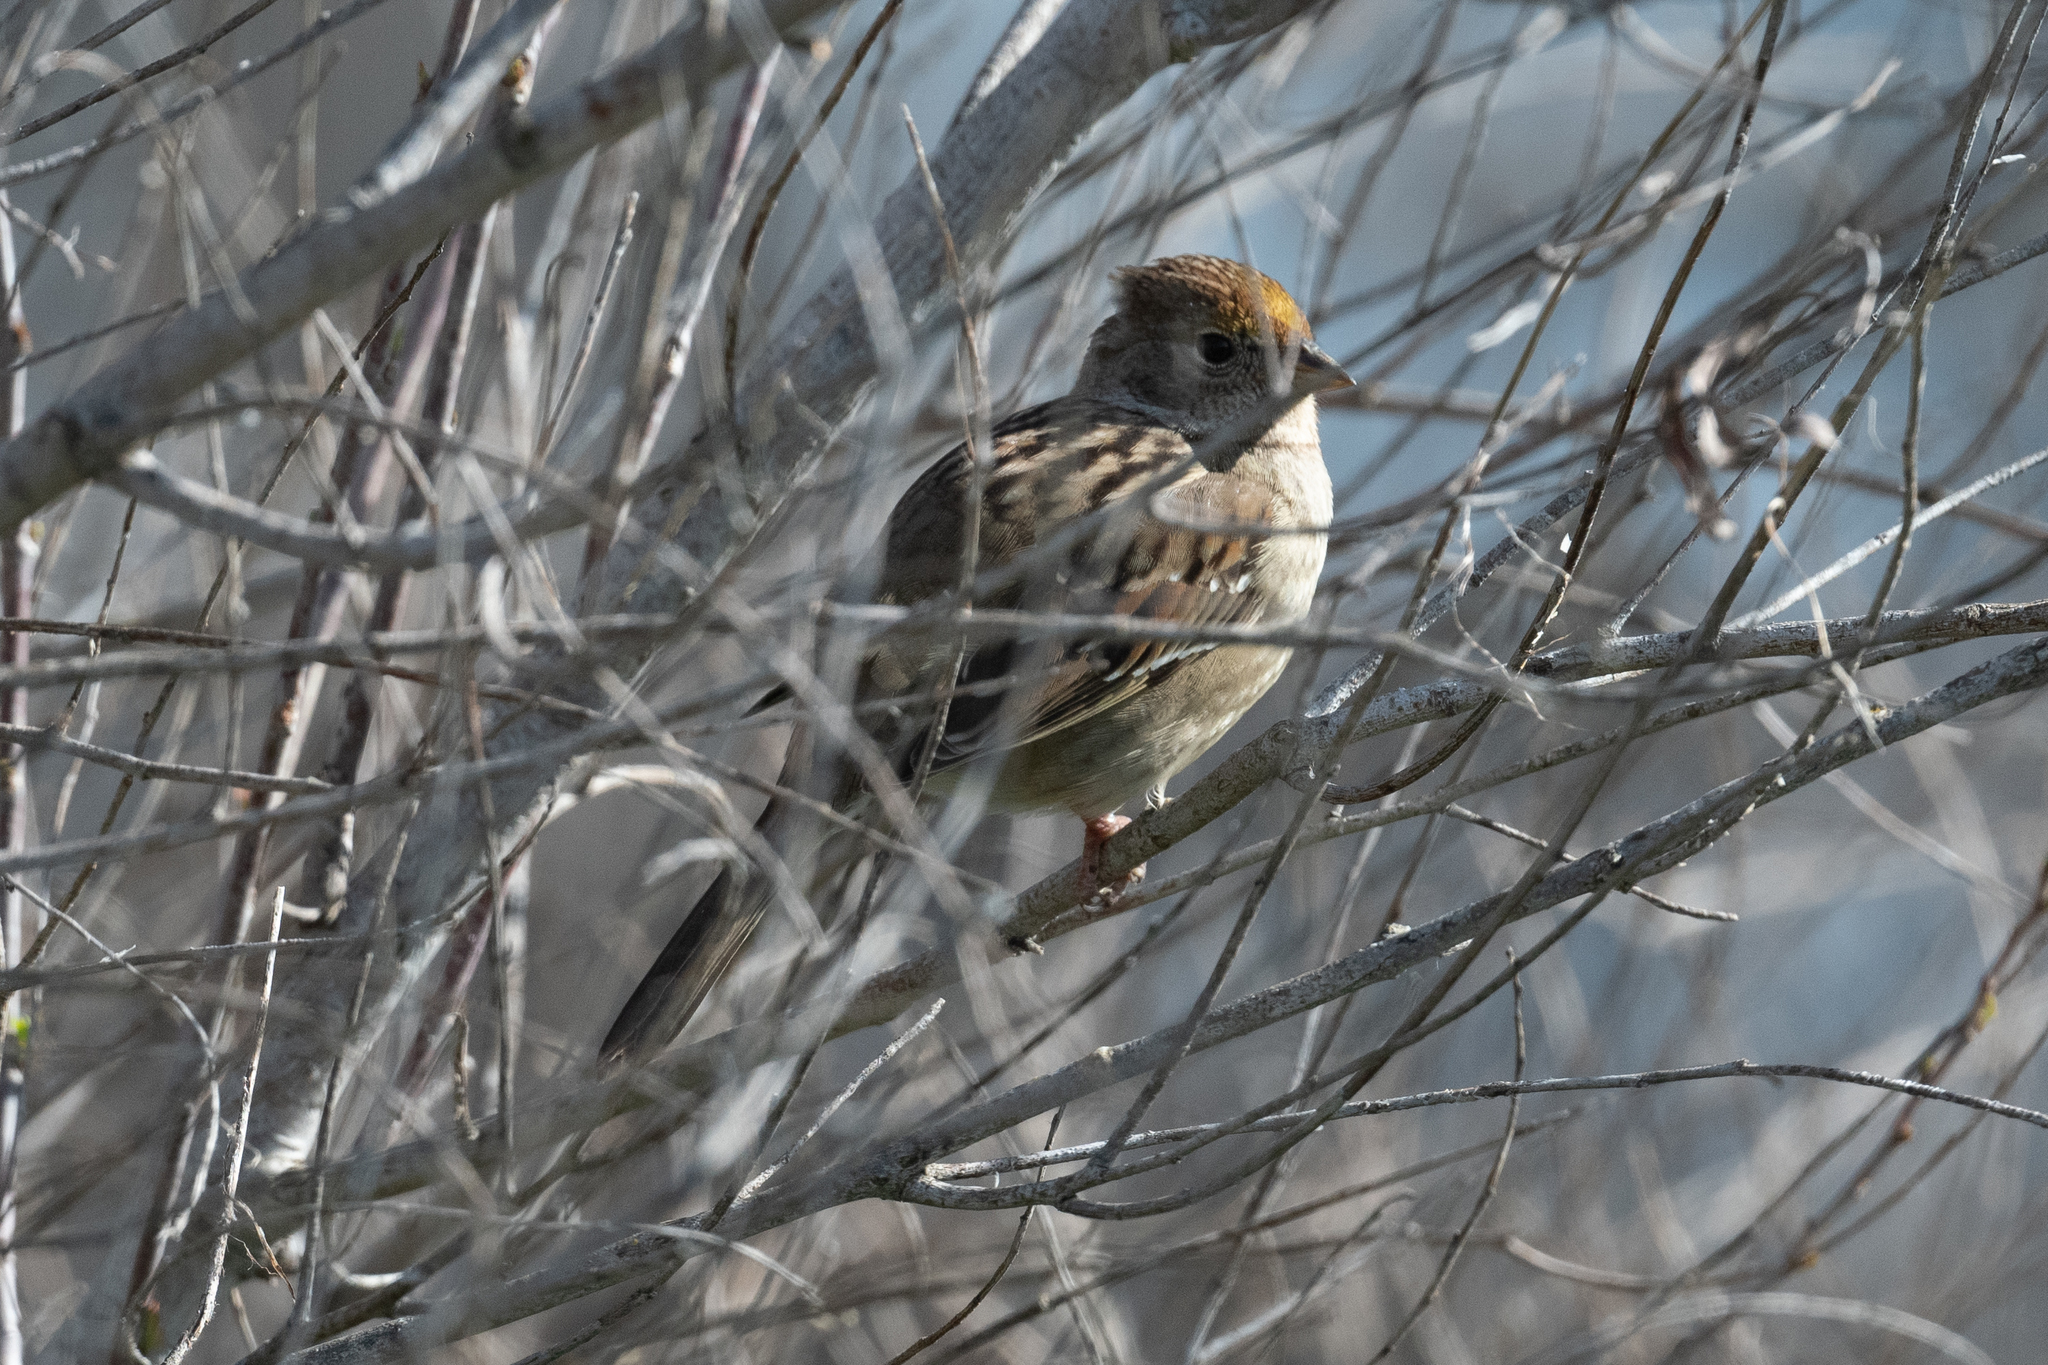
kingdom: Animalia
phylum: Chordata
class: Aves
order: Passeriformes
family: Passerellidae
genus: Zonotrichia
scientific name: Zonotrichia atricapilla
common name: Golden-crowned sparrow
